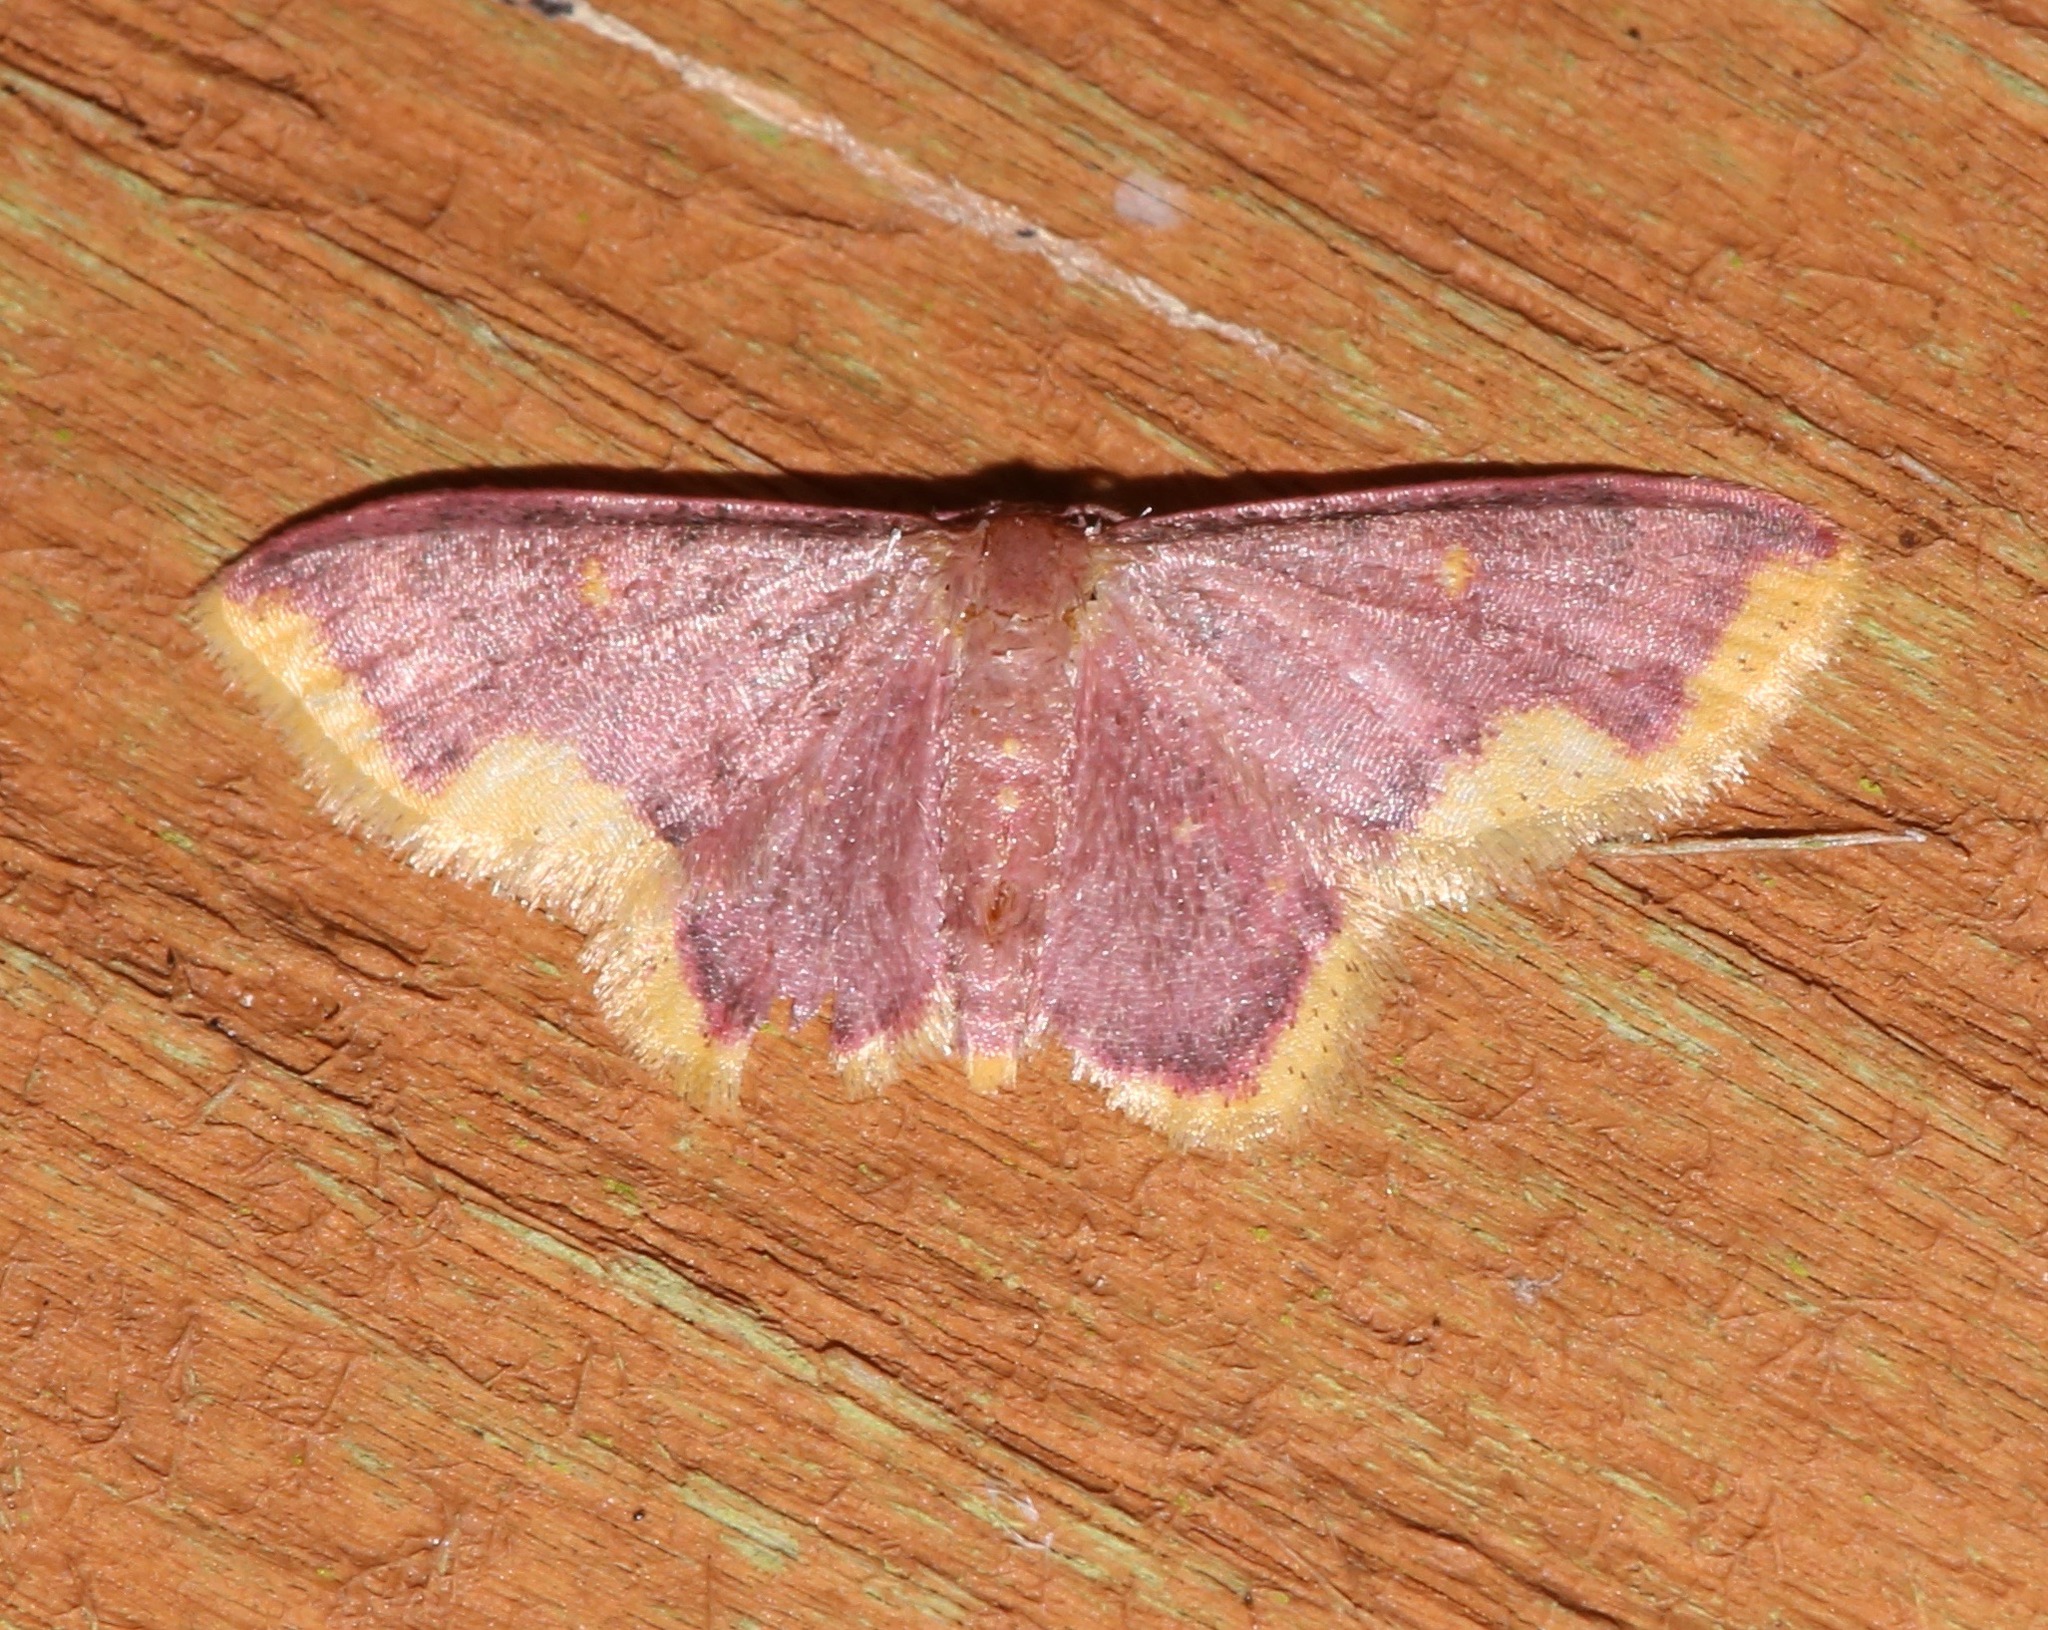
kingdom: Animalia
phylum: Arthropoda
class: Insecta
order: Lepidoptera
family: Geometridae
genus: Lophosis
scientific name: Lophosis labeculata
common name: Stained lophosis moth
